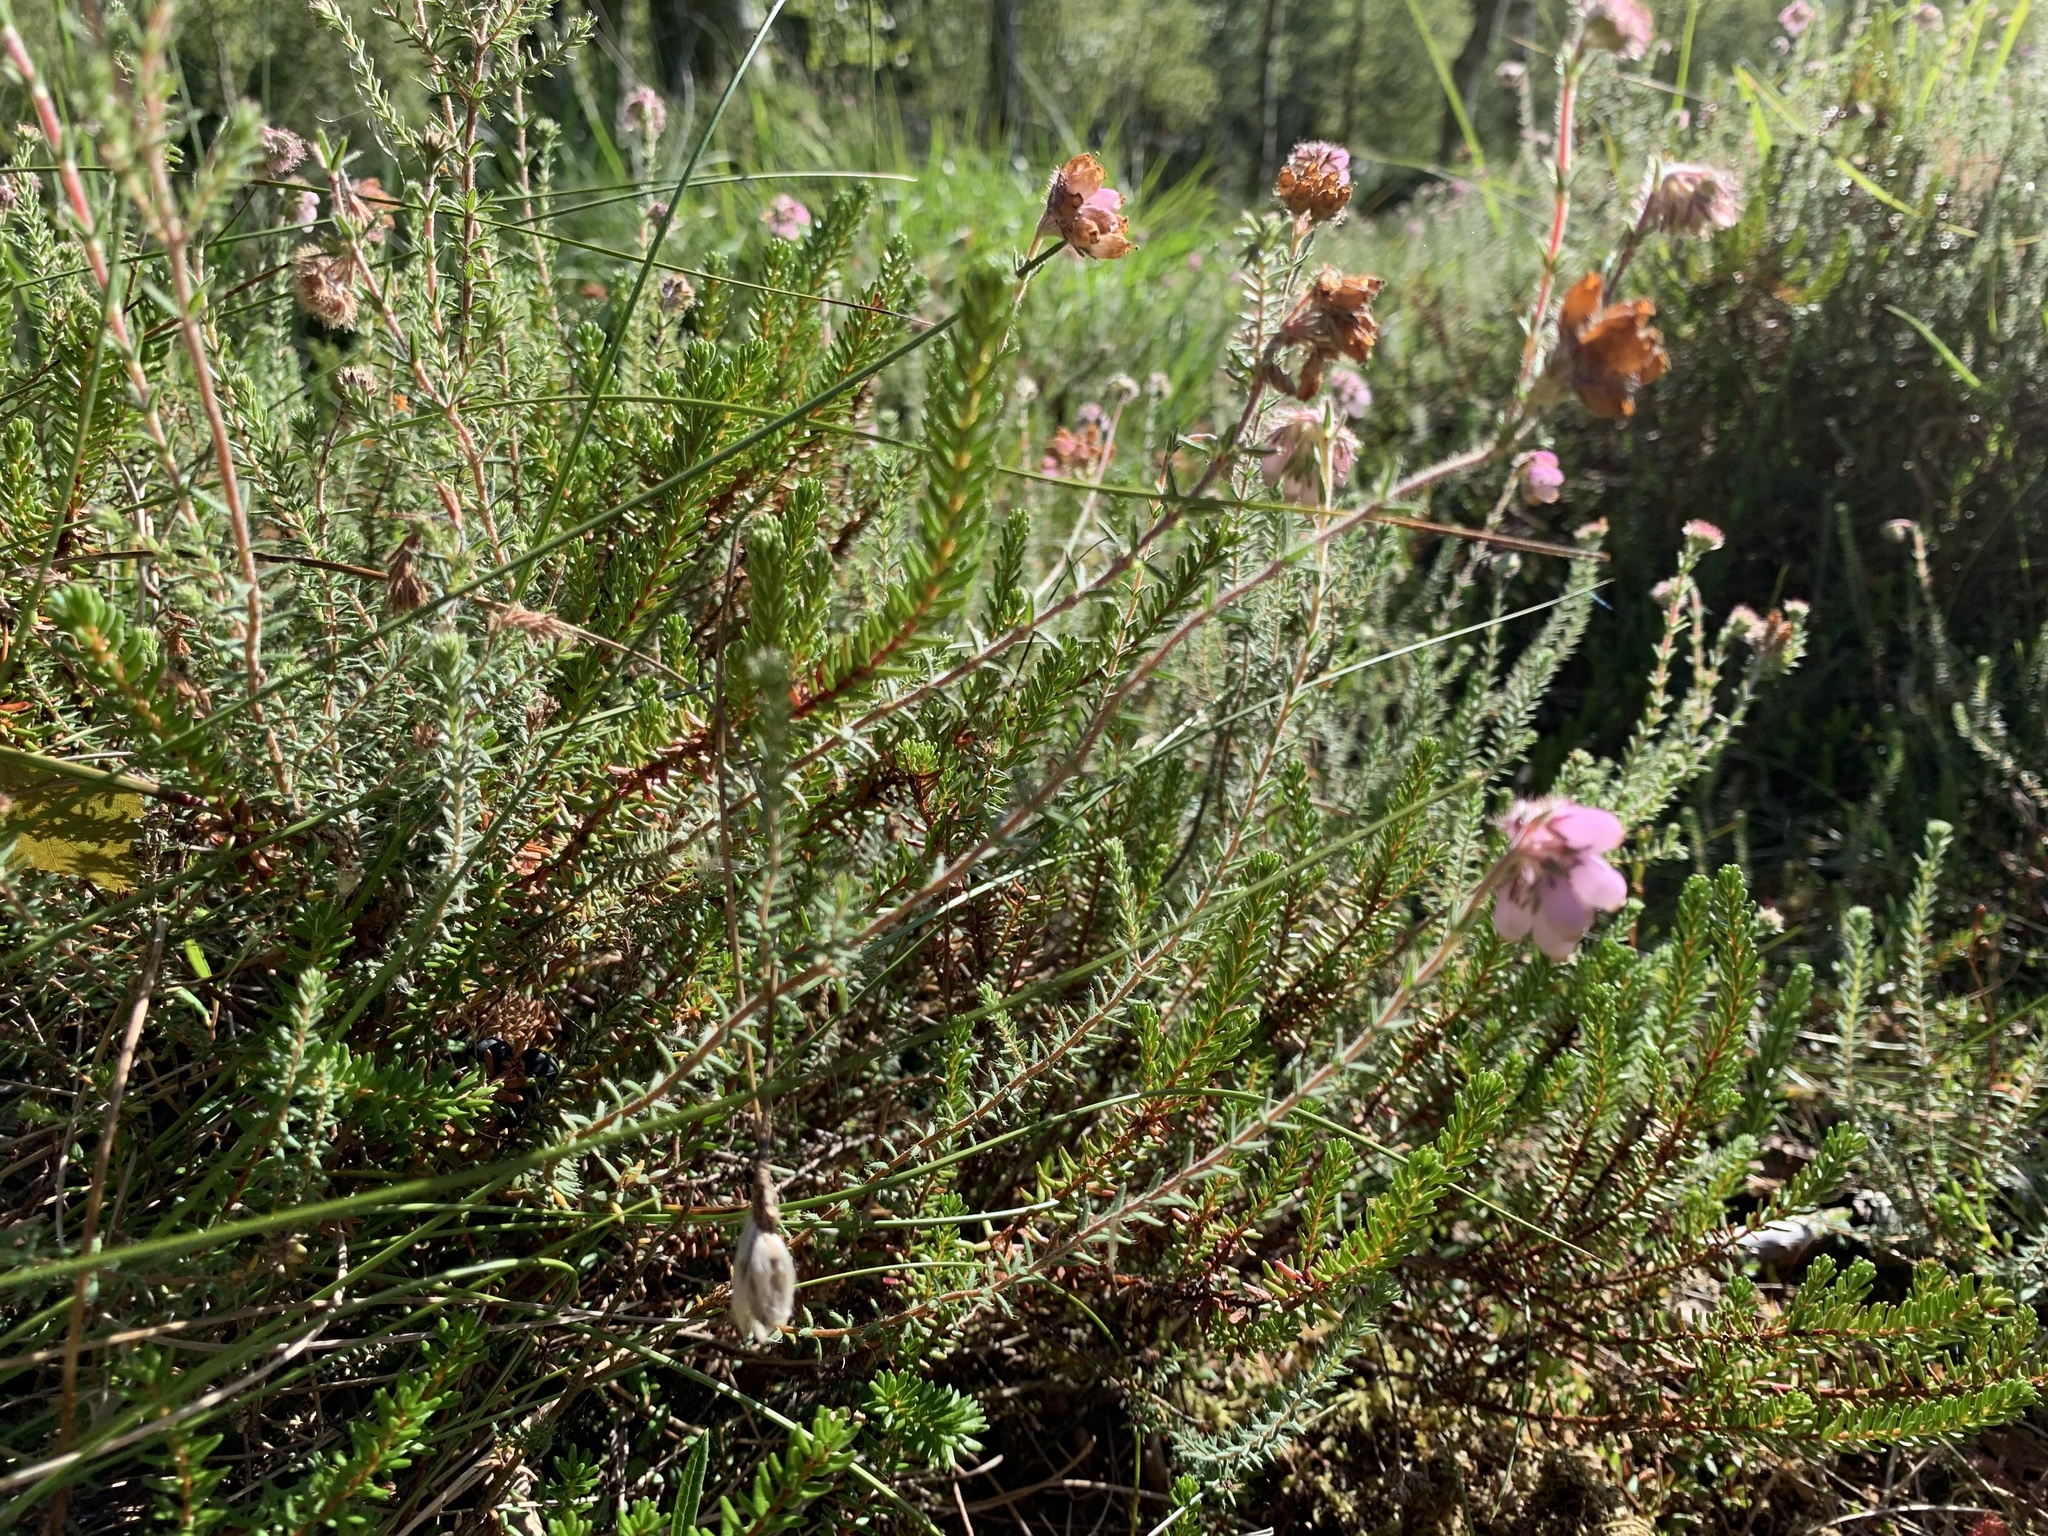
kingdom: Plantae
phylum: Tracheophyta
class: Magnoliopsida
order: Ericales
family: Ericaceae
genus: Erica
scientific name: Erica tetralix
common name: Cross-leaved heath
